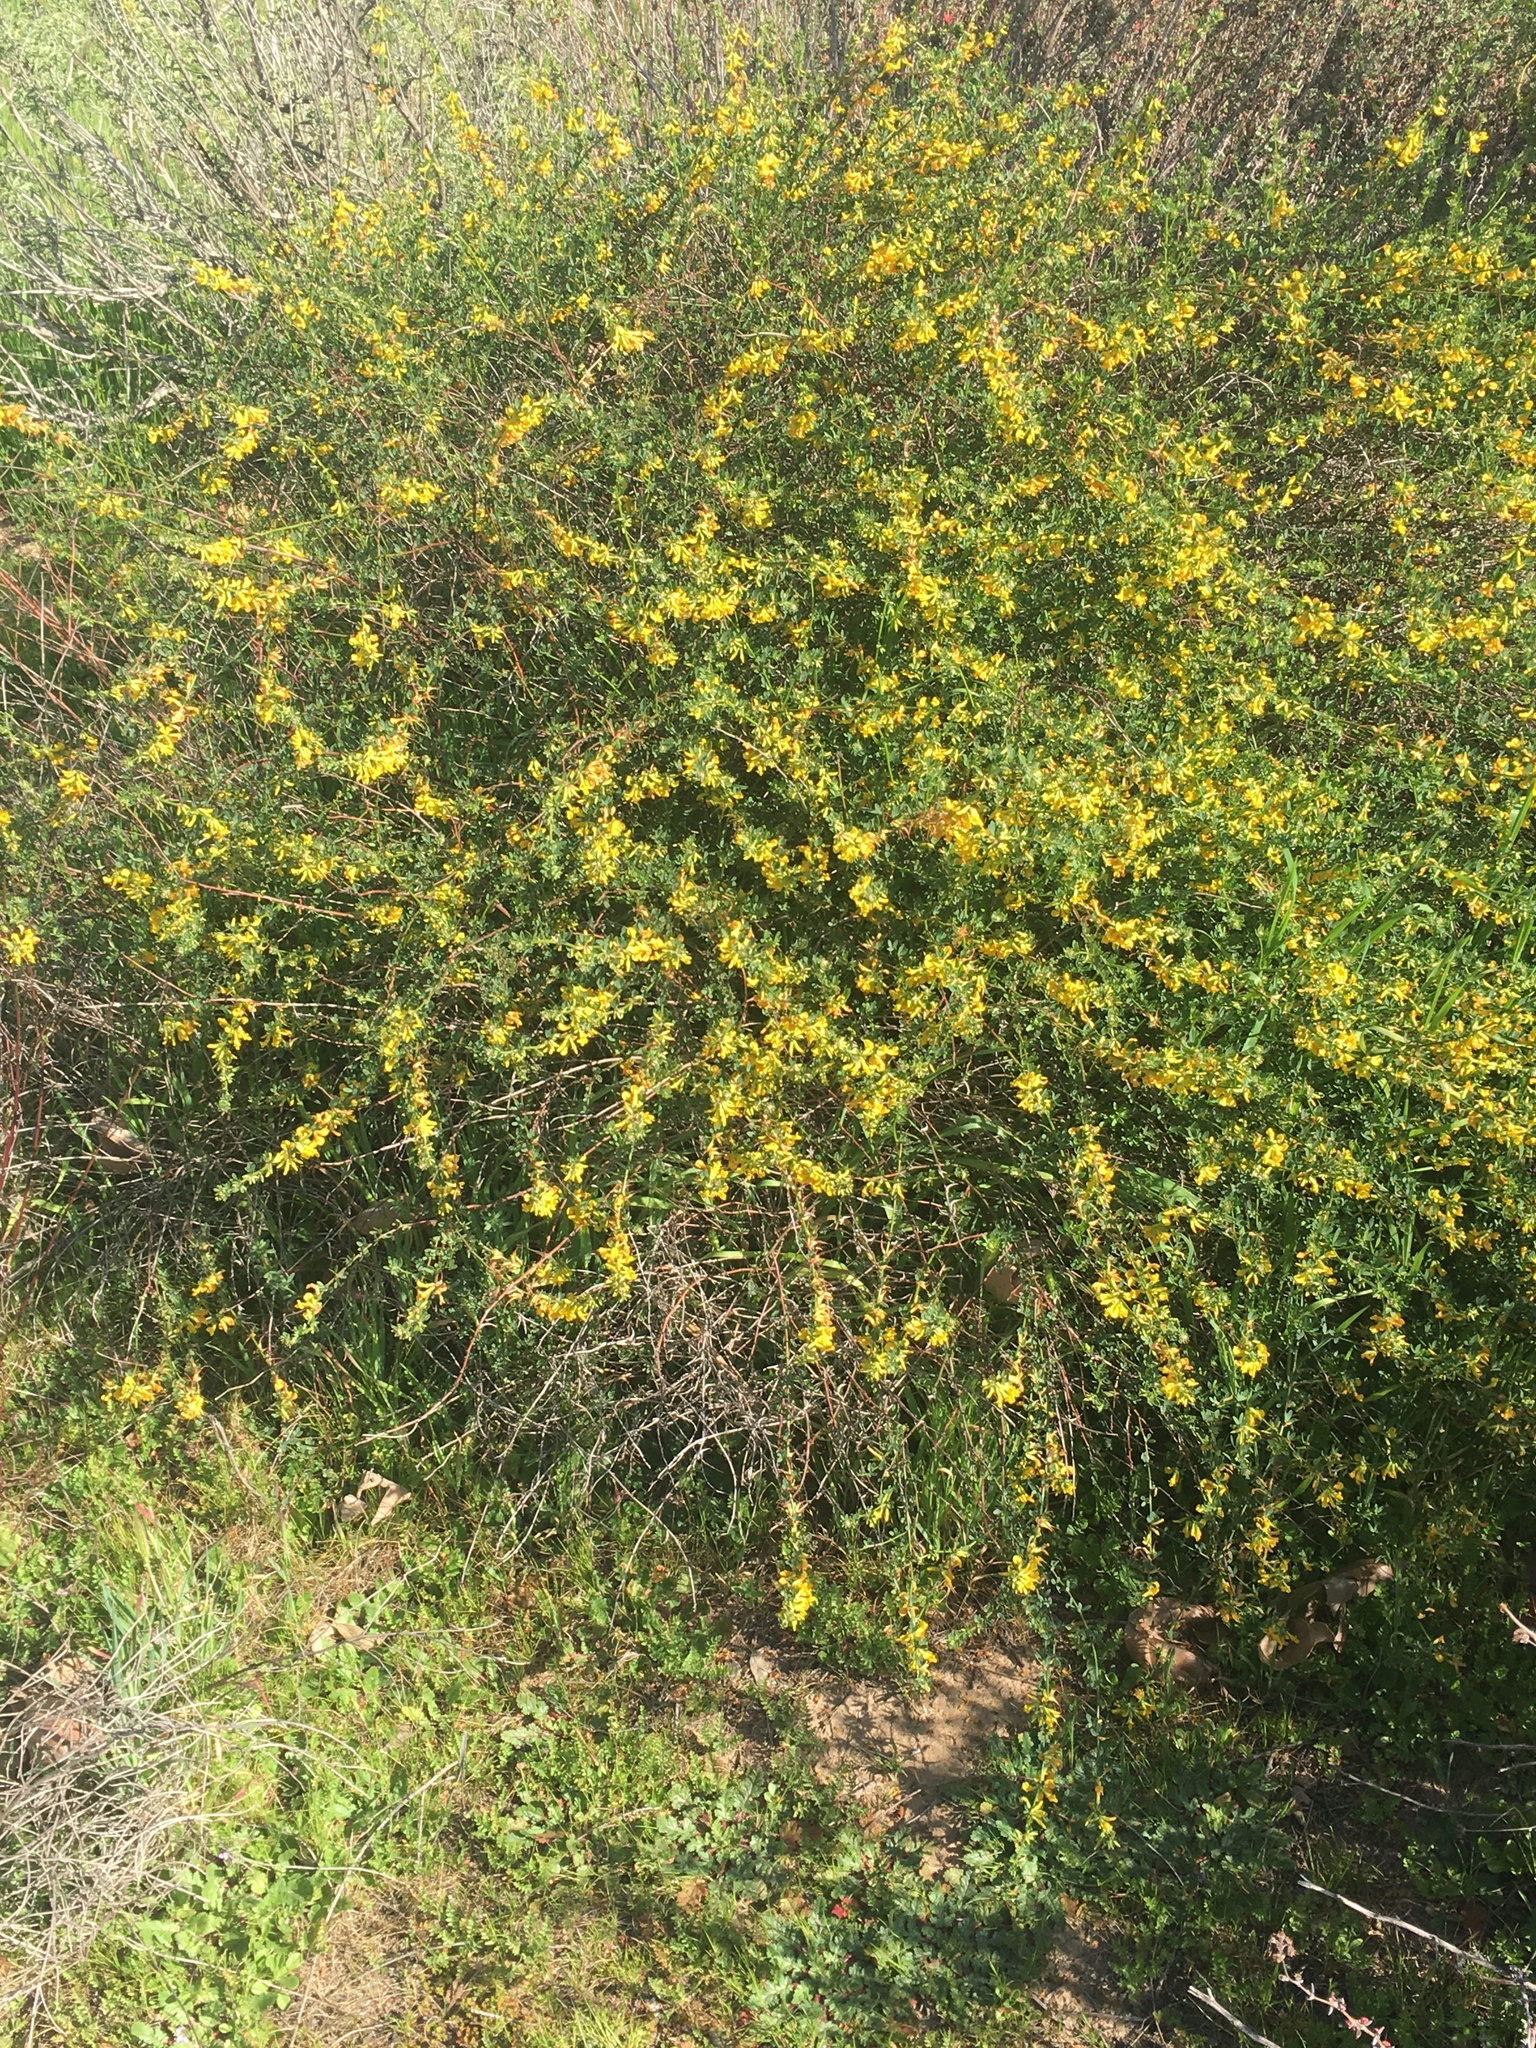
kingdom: Plantae
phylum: Tracheophyta
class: Magnoliopsida
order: Fabales
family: Fabaceae
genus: Acmispon
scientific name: Acmispon glaber
